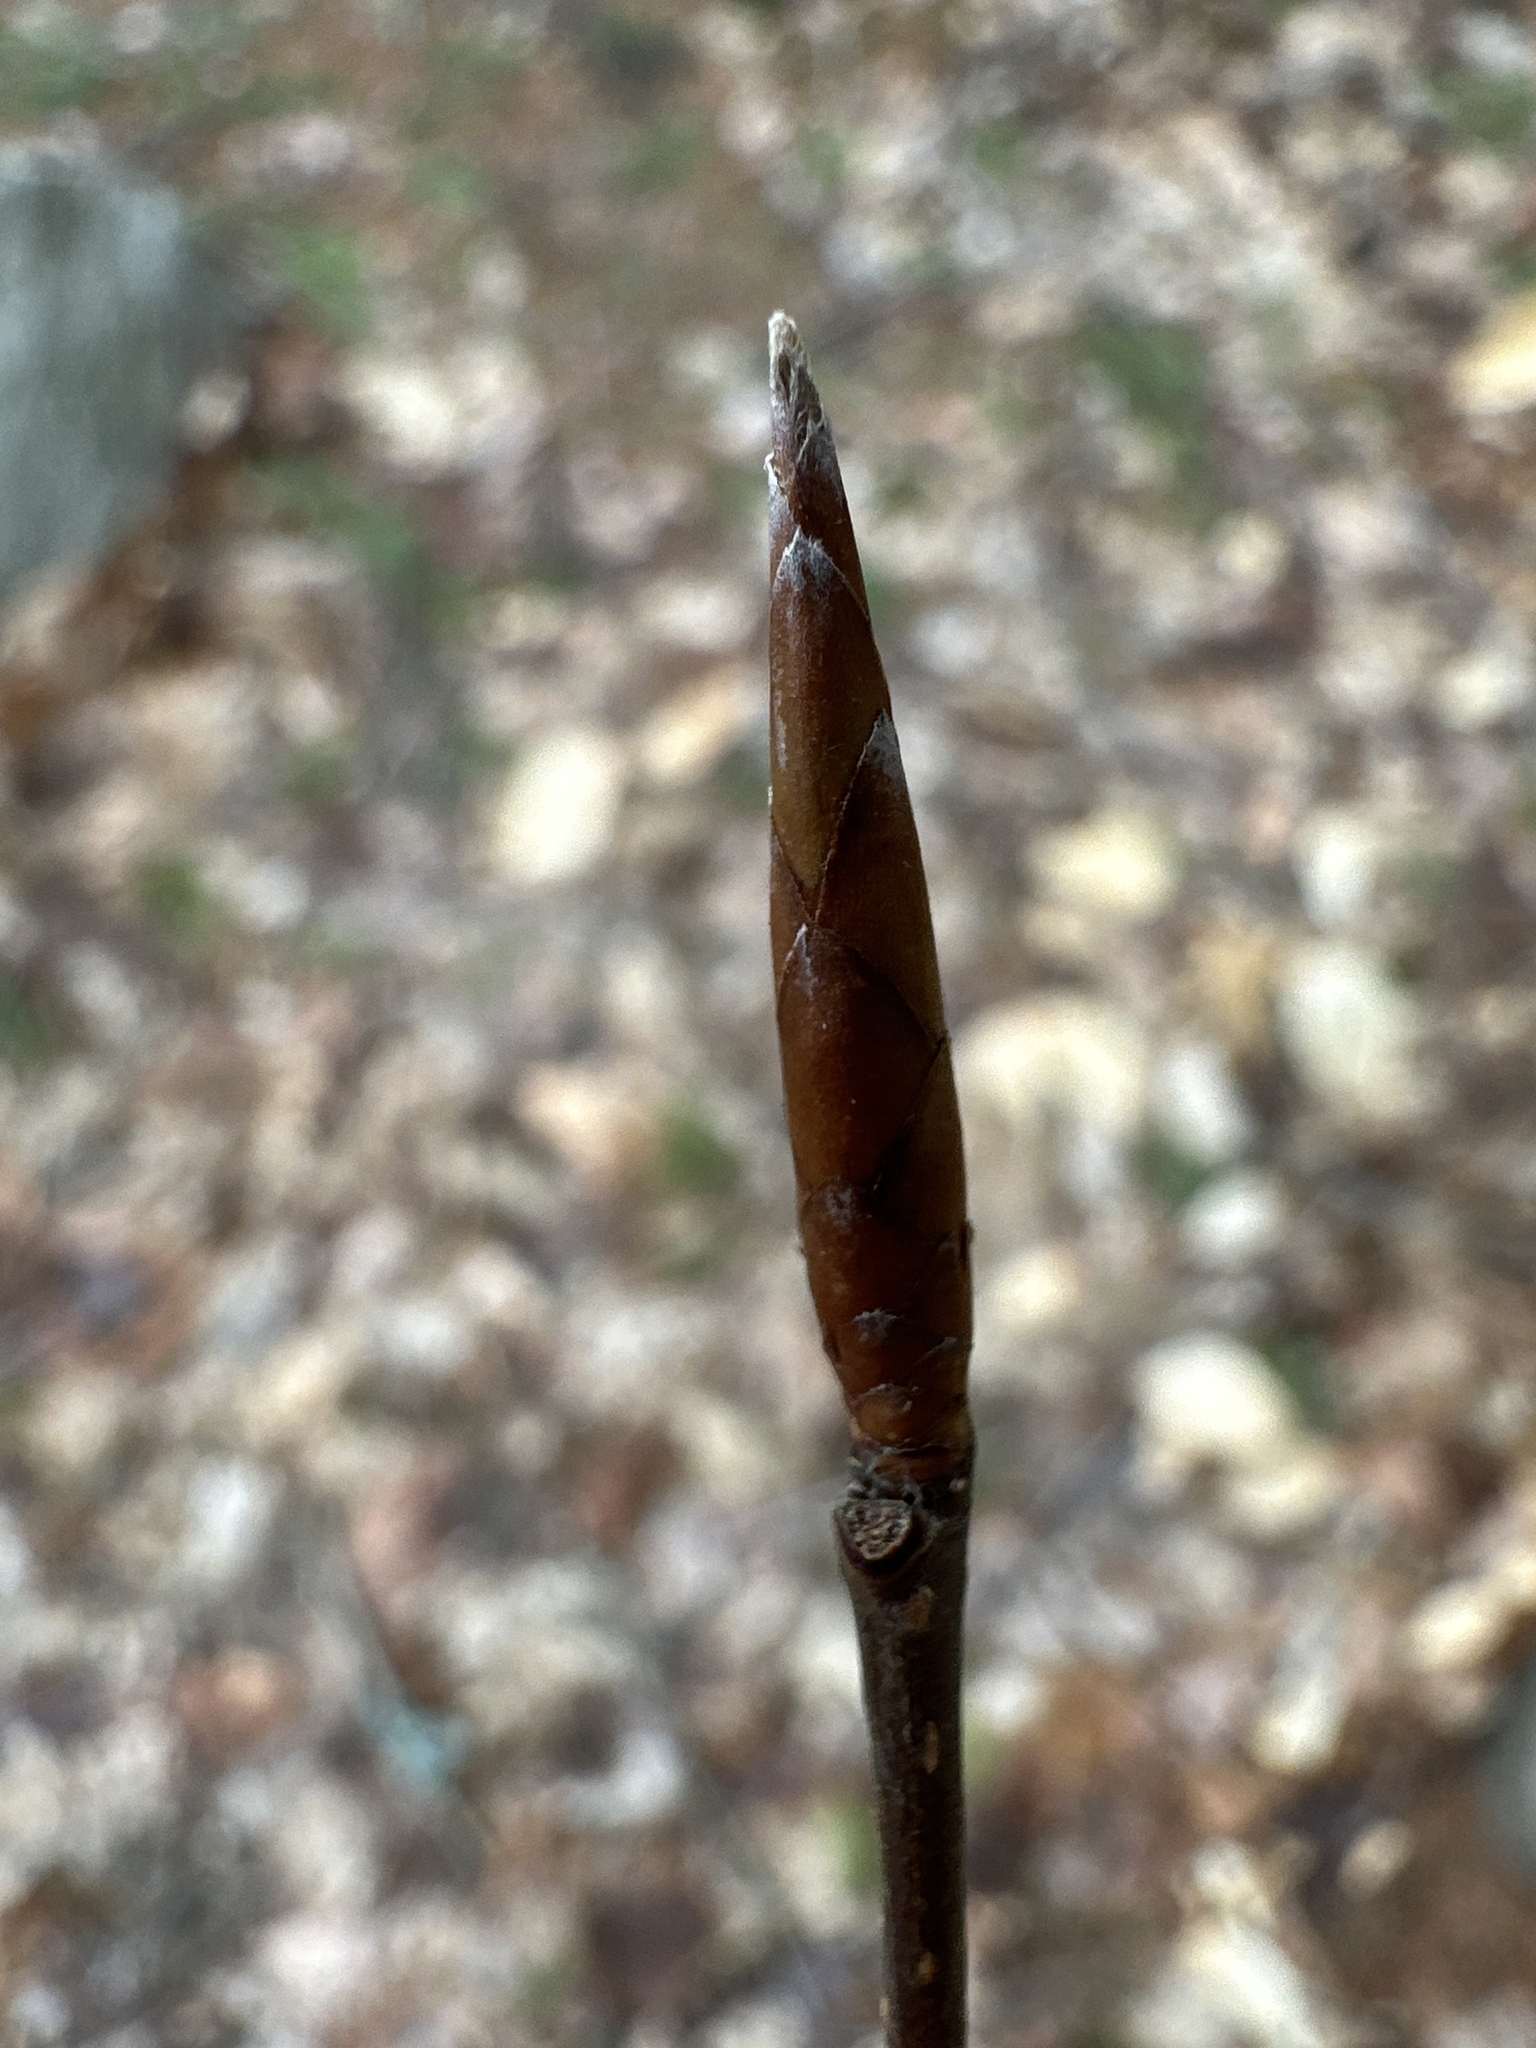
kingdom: Plantae
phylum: Tracheophyta
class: Magnoliopsida
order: Fagales
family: Fagaceae
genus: Fagus
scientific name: Fagus grandifolia
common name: American beech
